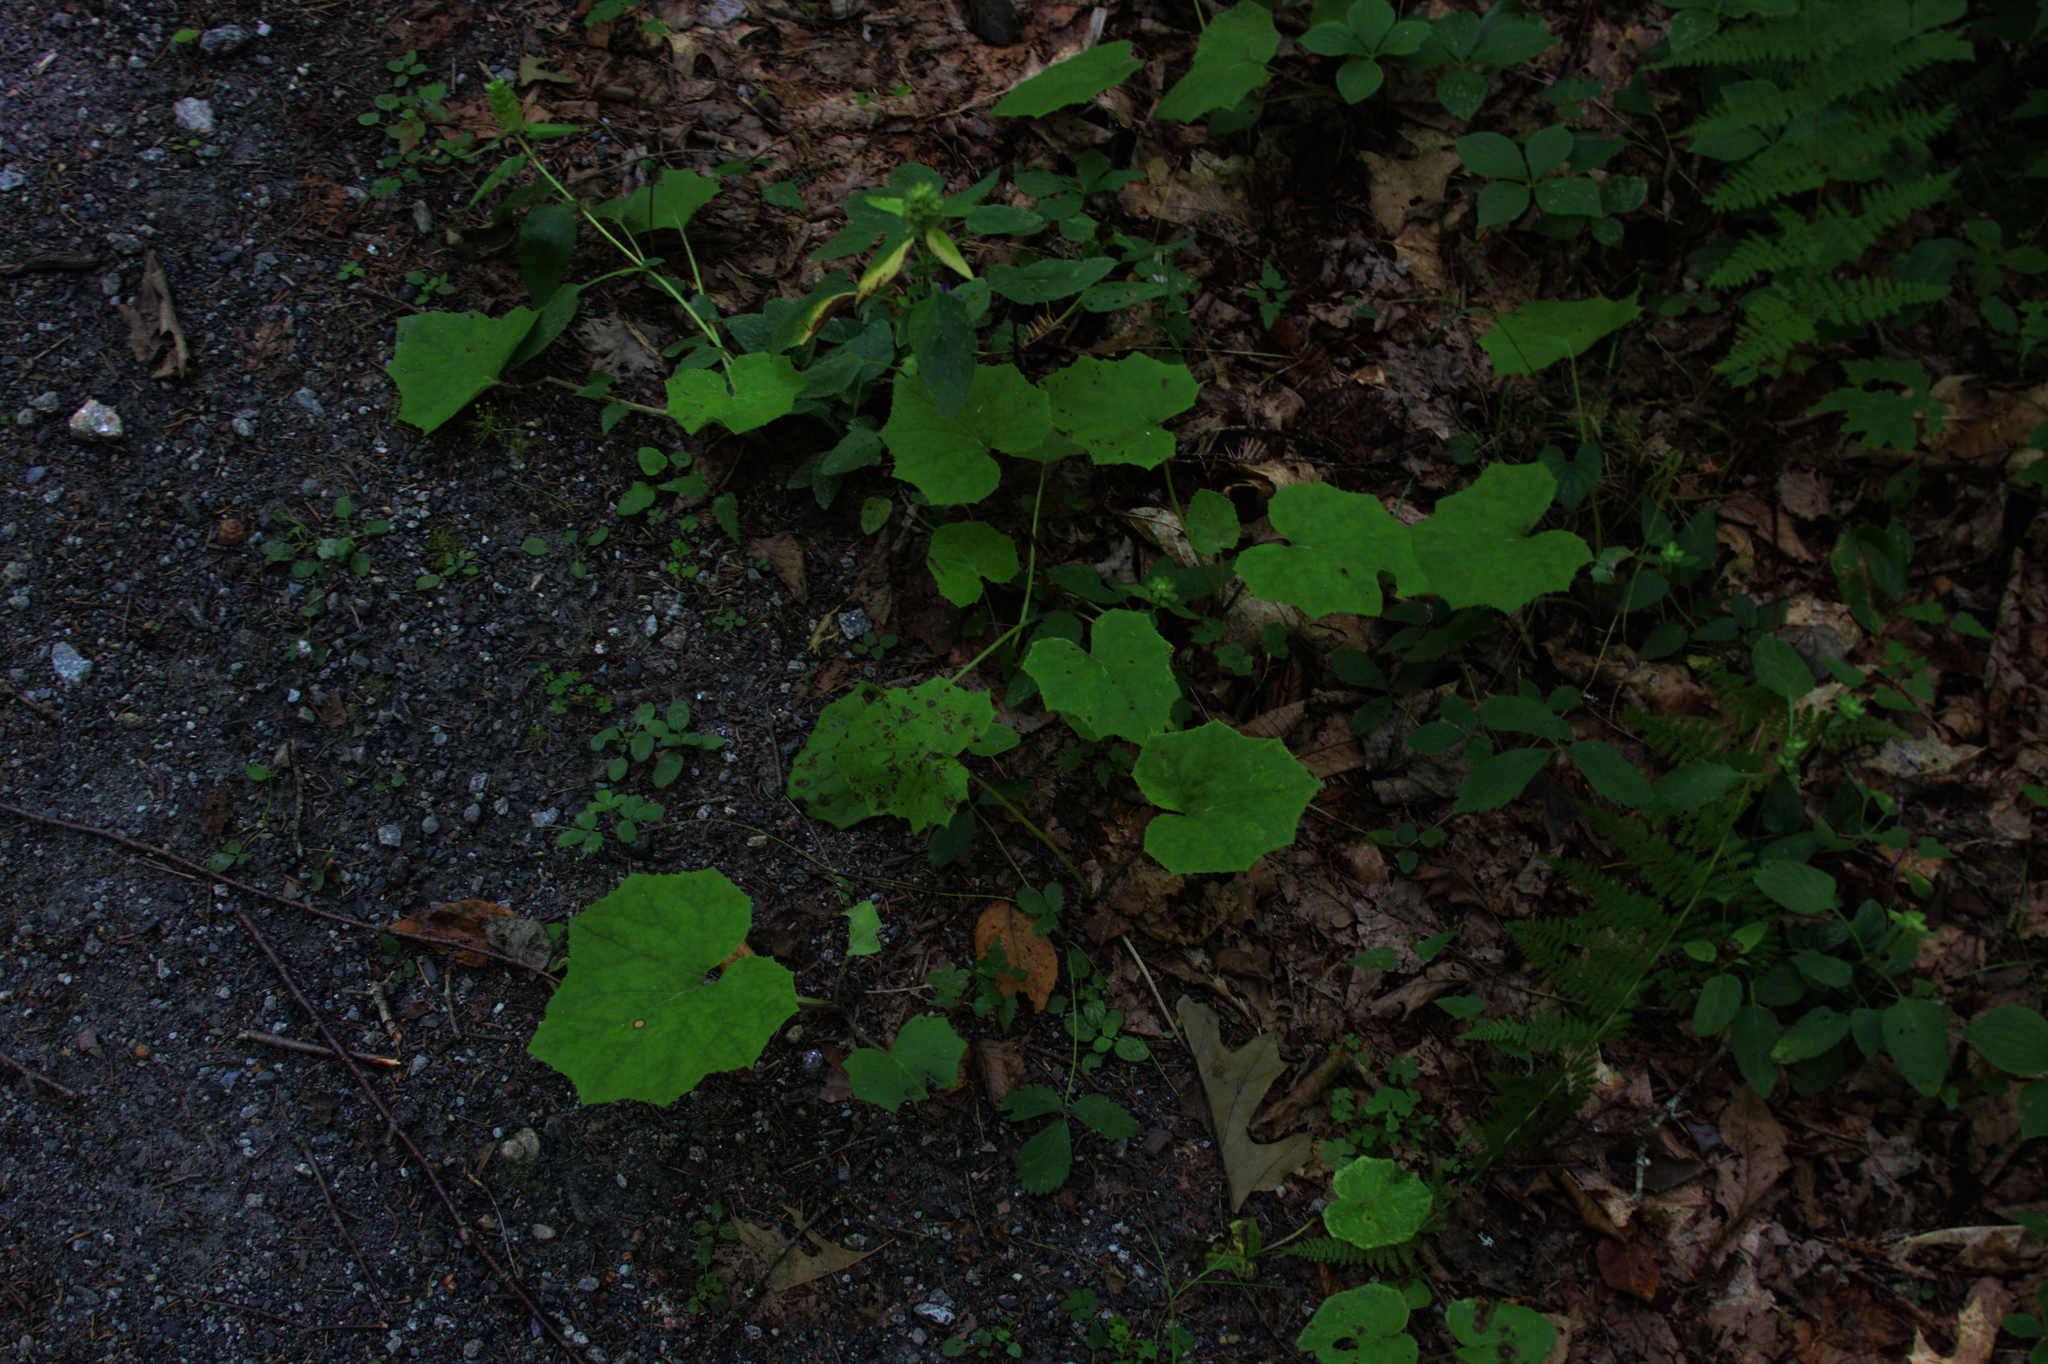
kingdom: Plantae
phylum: Tracheophyta
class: Magnoliopsida
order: Asterales
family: Asteraceae
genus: Tussilago
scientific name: Tussilago farfara
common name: Coltsfoot
